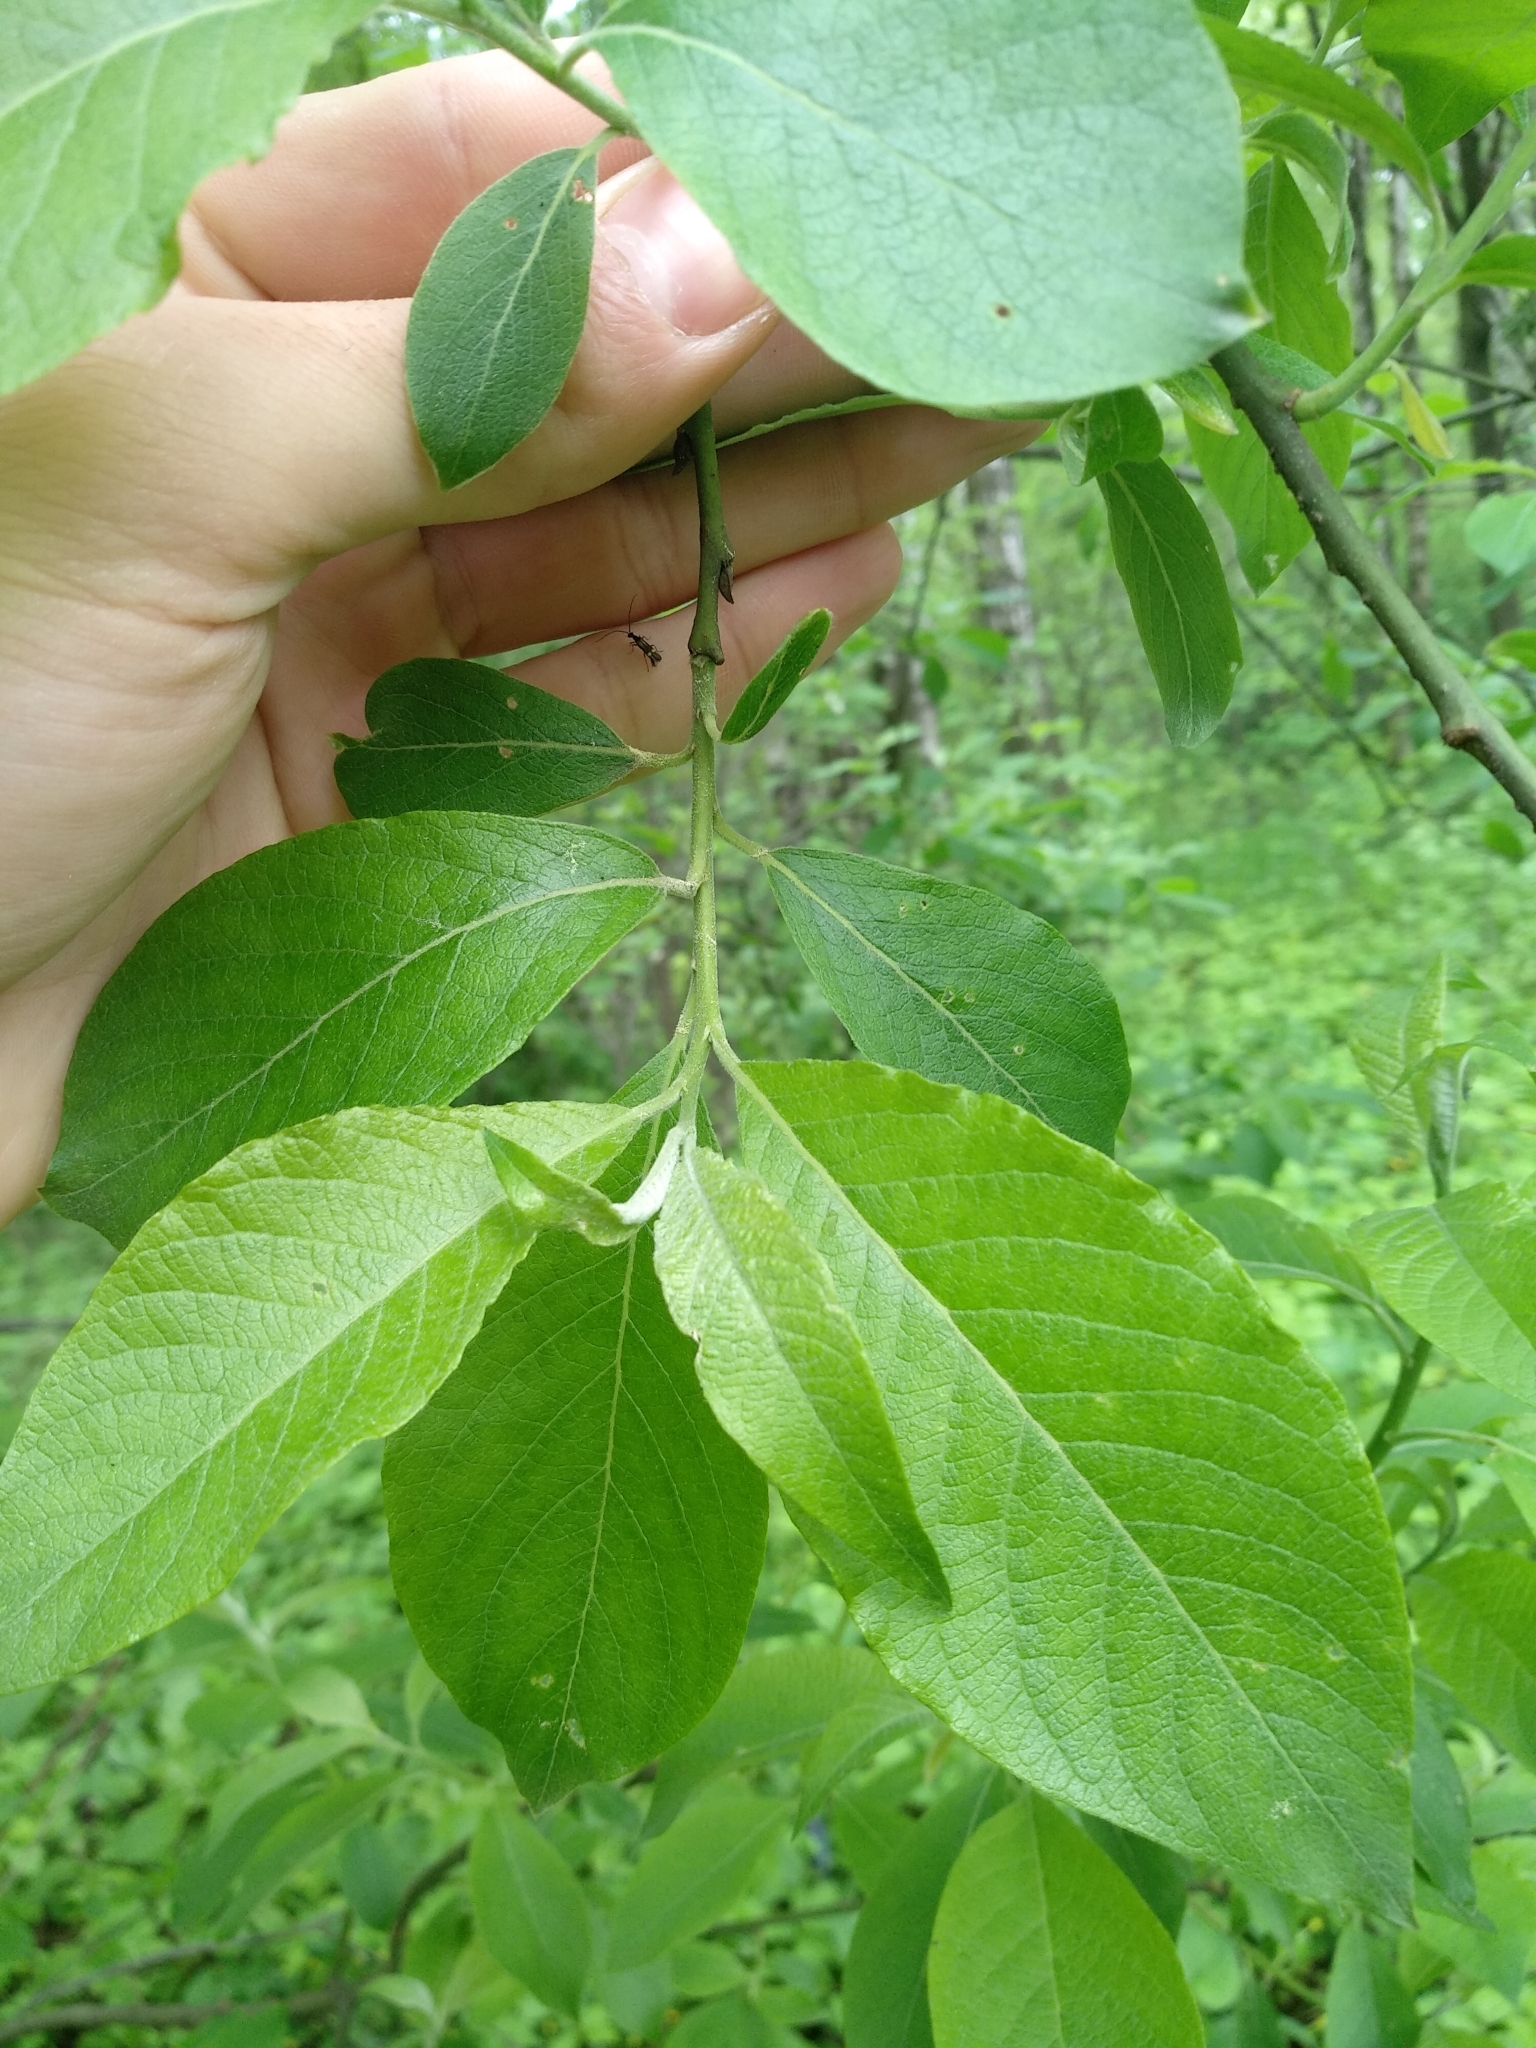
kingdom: Plantae
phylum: Tracheophyta
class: Magnoliopsida
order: Malpighiales
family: Salicaceae
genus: Salix
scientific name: Salix caprea
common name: Goat willow
